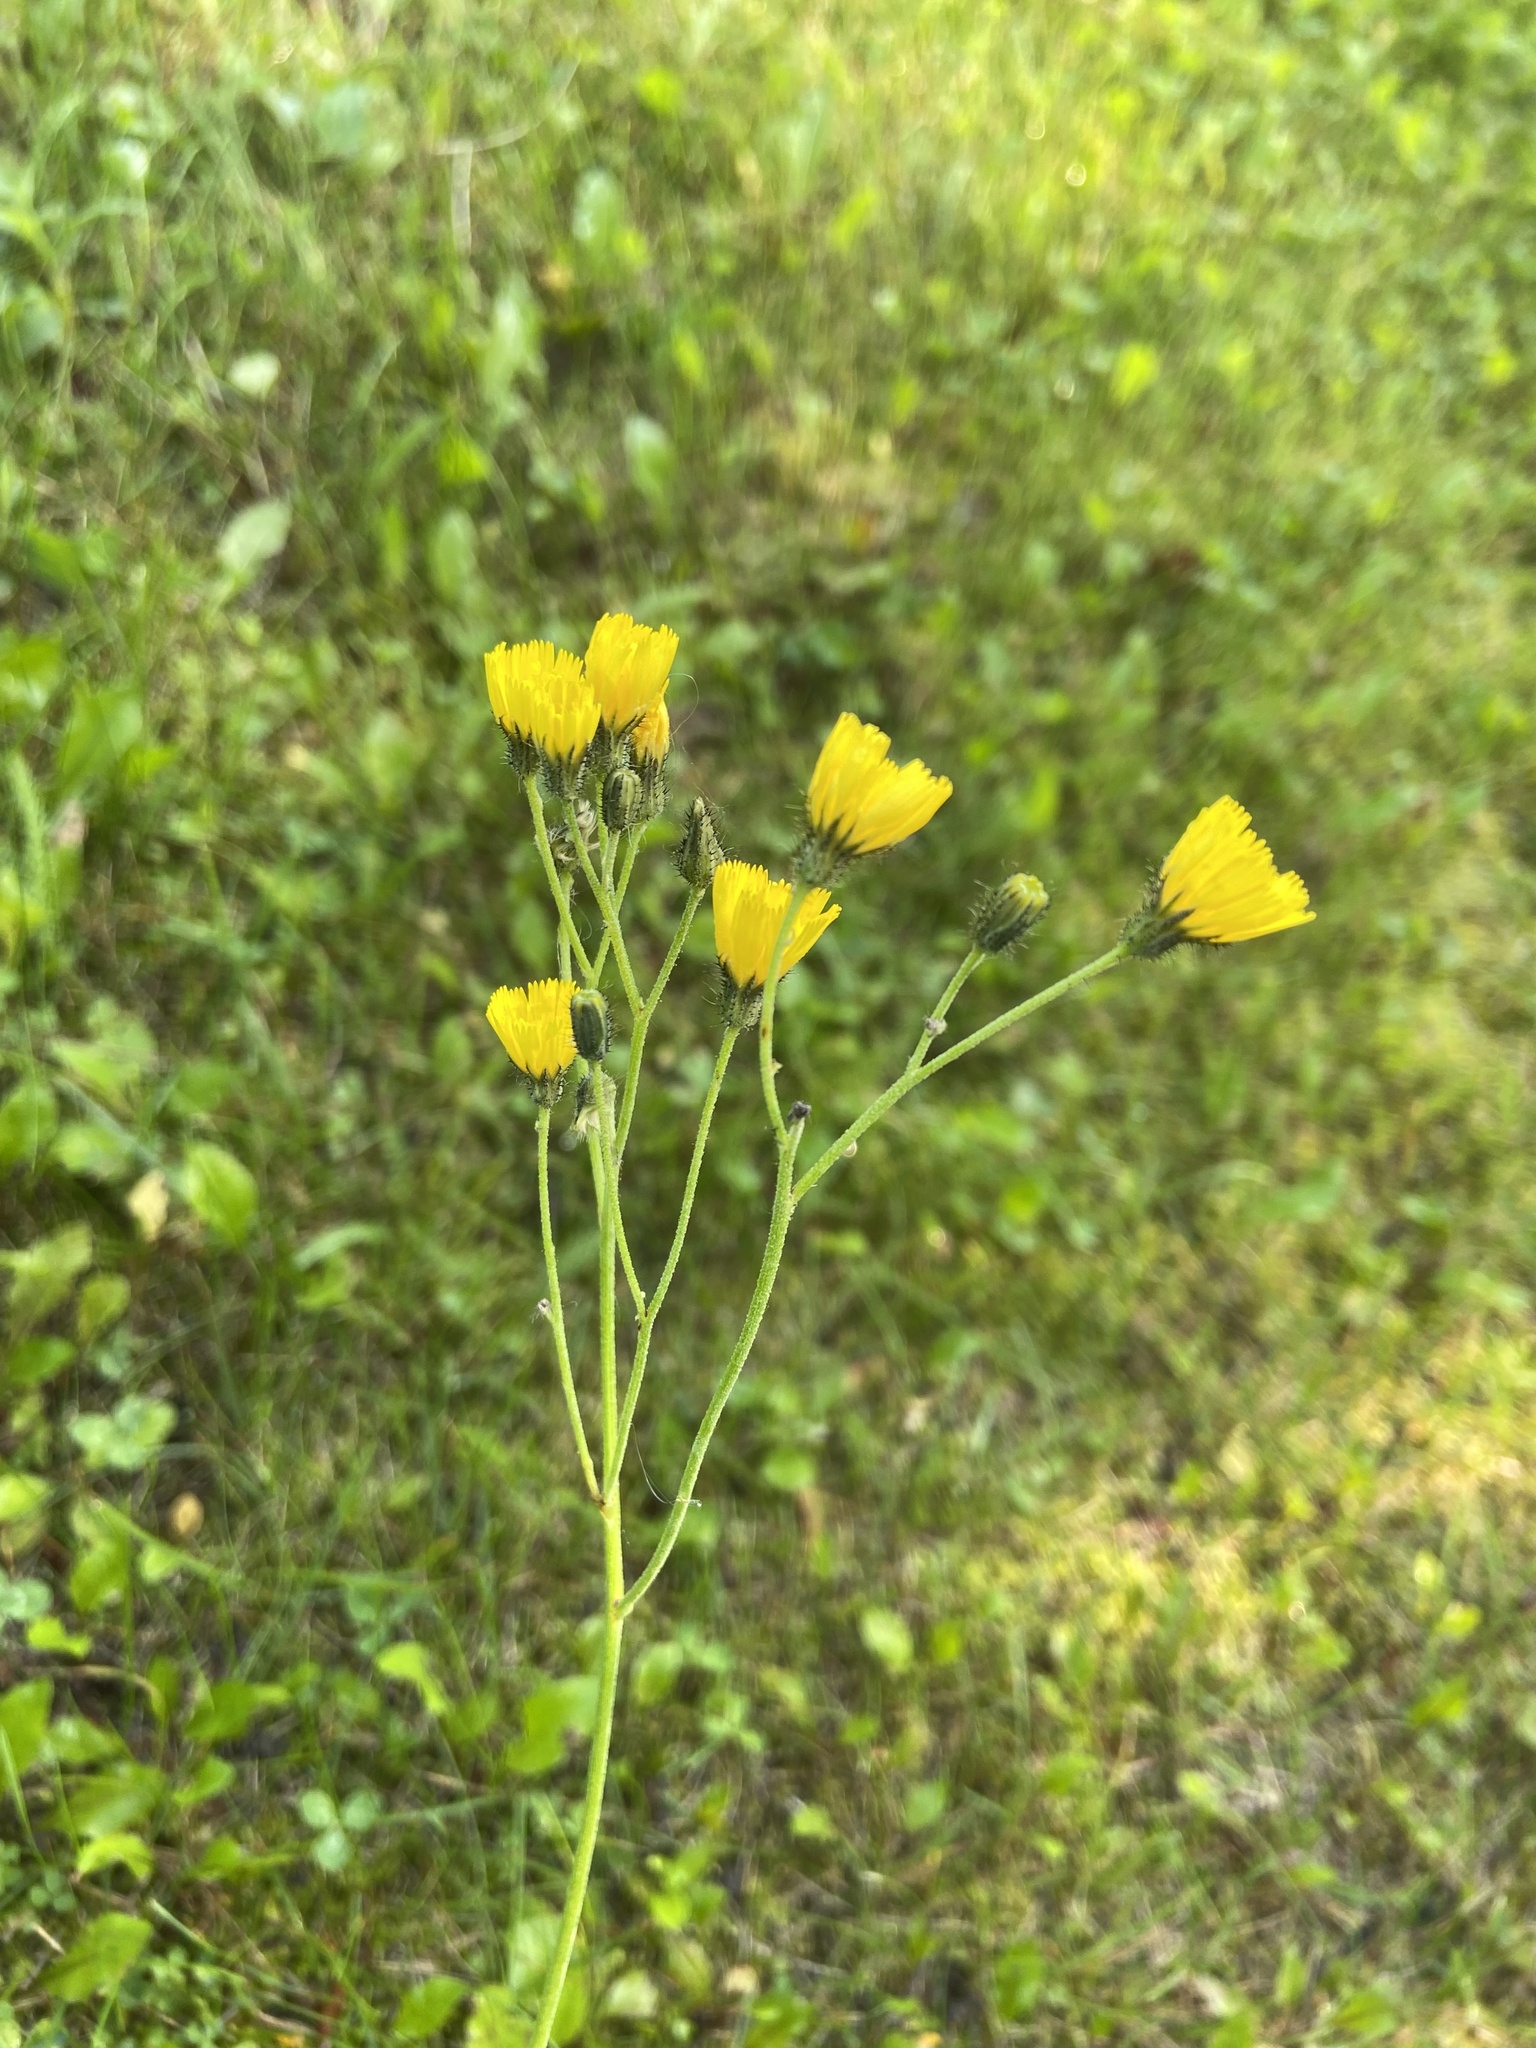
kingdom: Plantae
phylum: Tracheophyta
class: Magnoliopsida
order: Asterales
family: Asteraceae
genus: Pilosella
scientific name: Pilosella caespitosa
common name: Yellow fox-and-cubs
